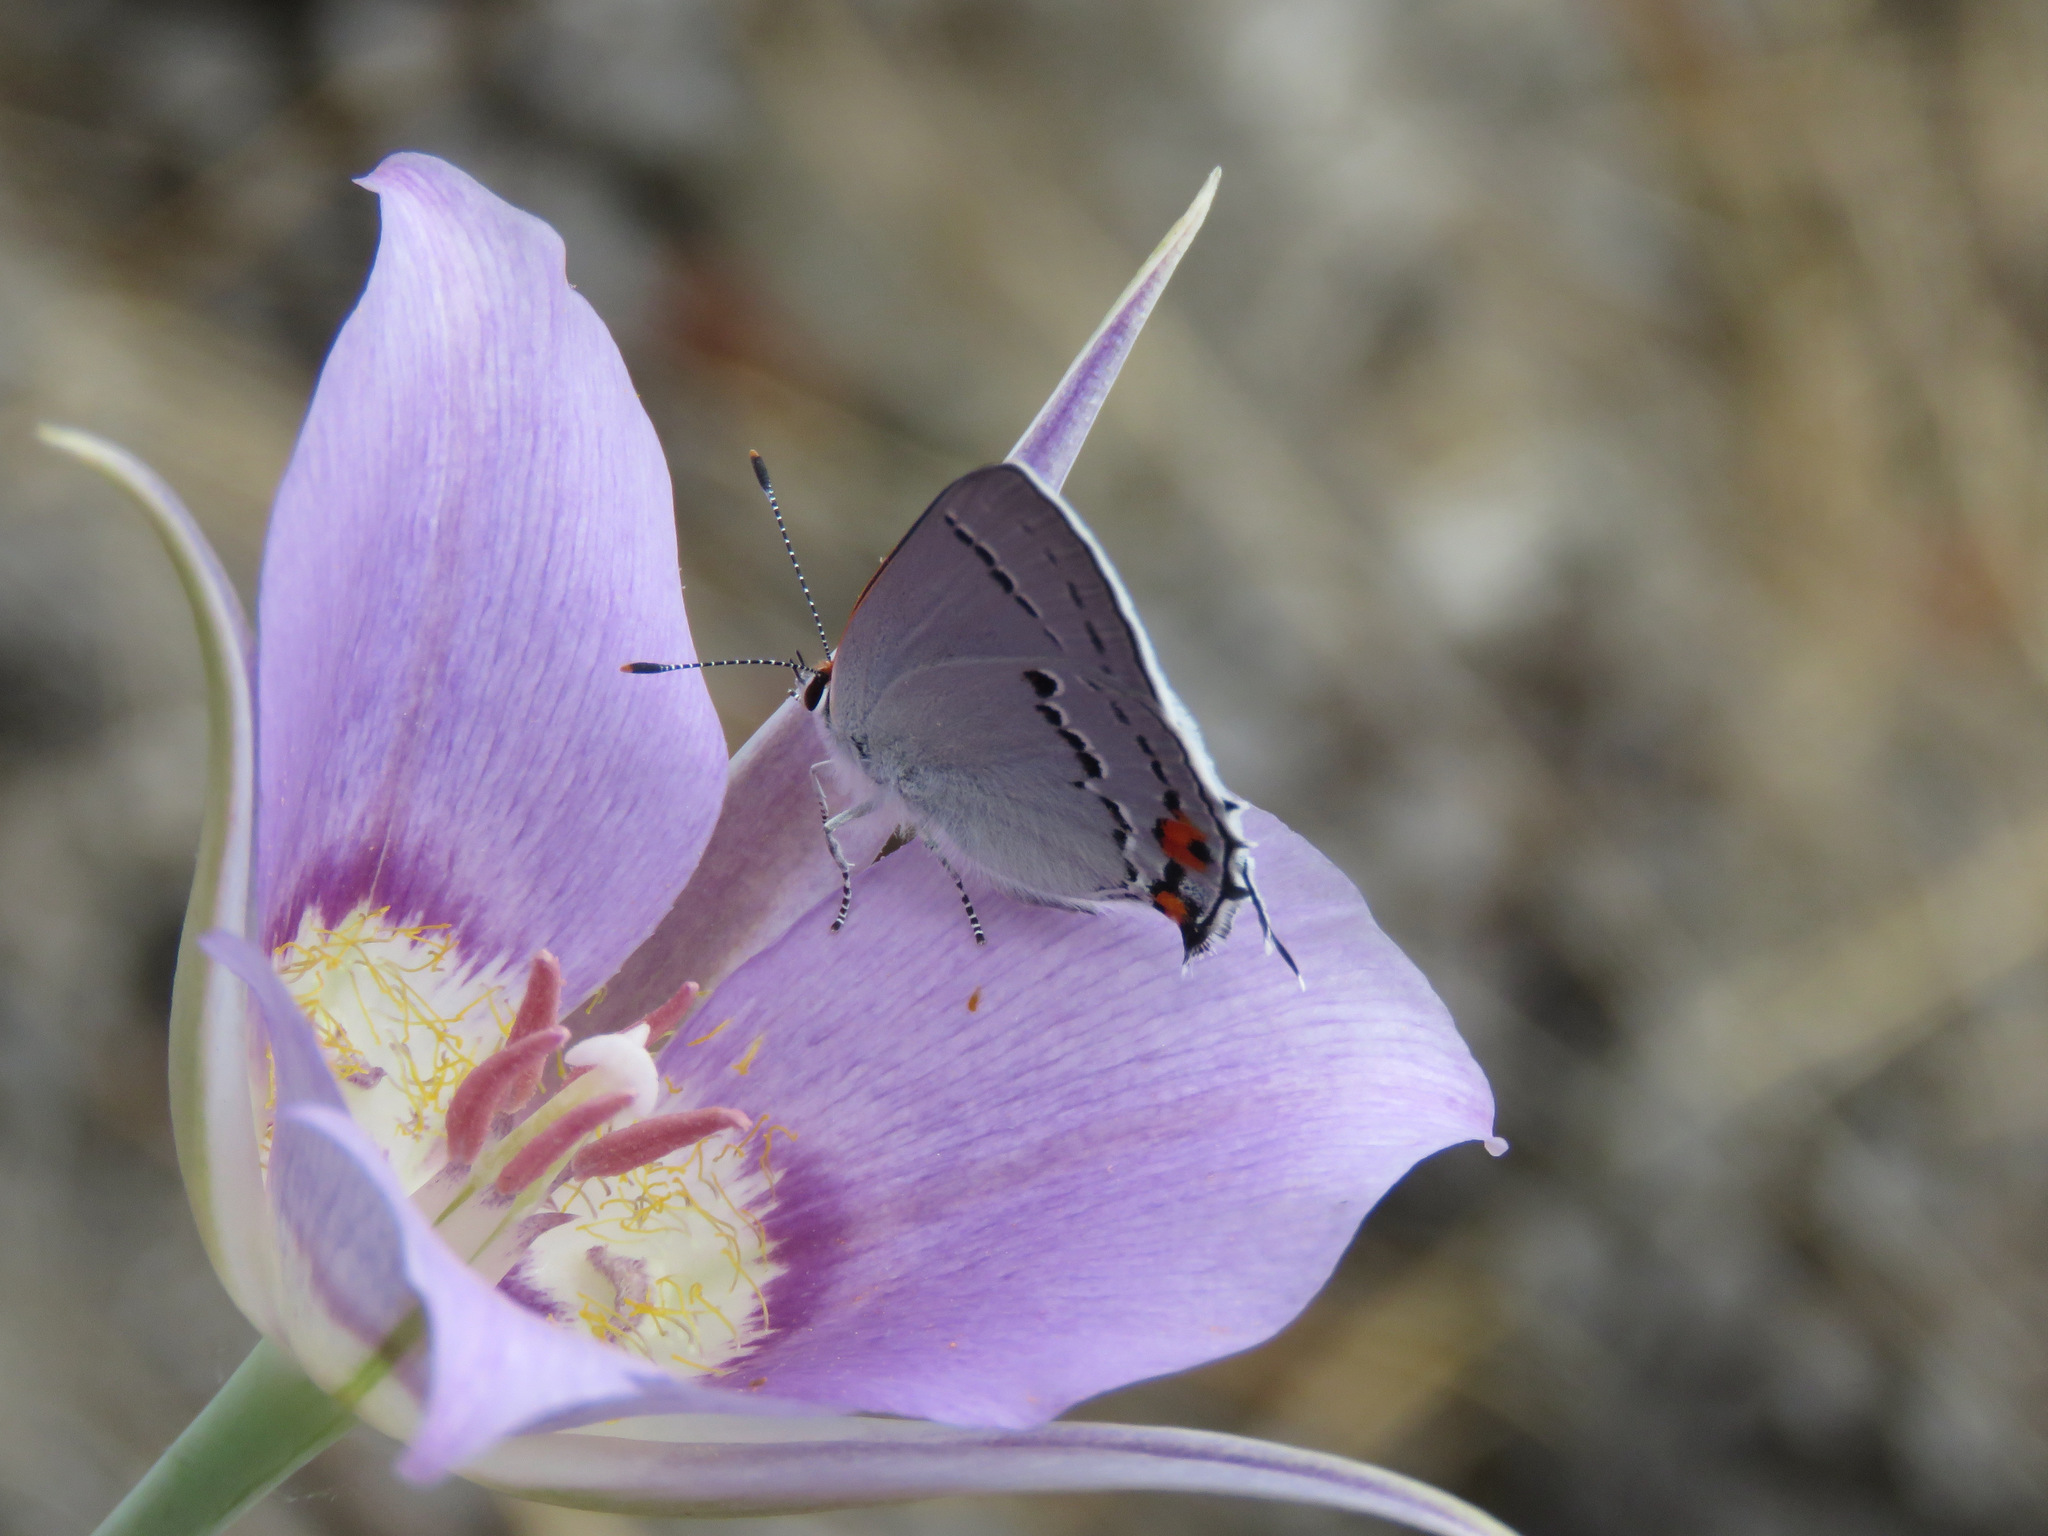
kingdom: Animalia
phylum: Arthropoda
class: Insecta
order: Lepidoptera
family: Lycaenidae
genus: Strymon
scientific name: Strymon melinus
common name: Gray hairstreak
